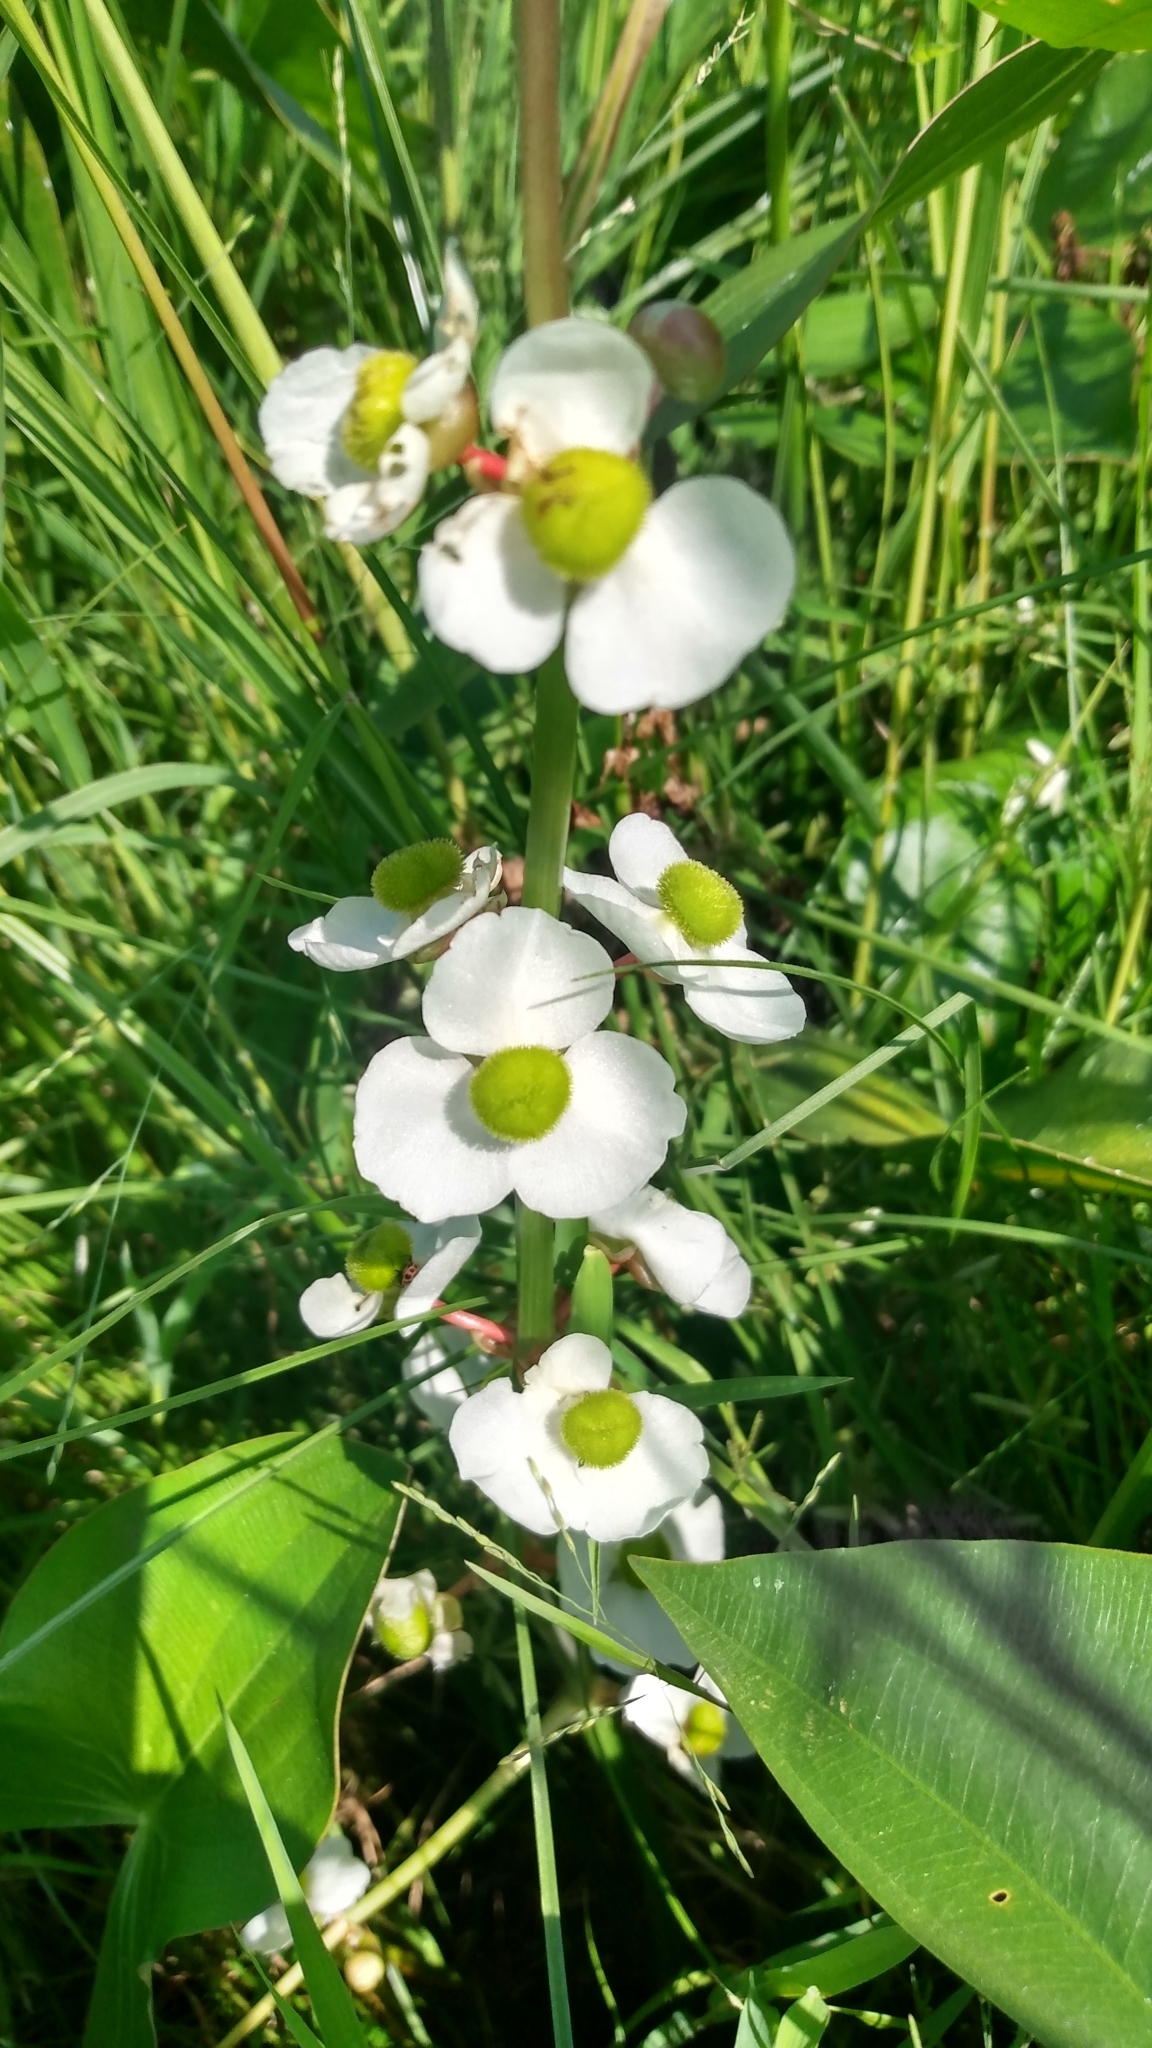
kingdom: Plantae
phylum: Tracheophyta
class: Liliopsida
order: Alismatales
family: Alismataceae
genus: Sagittaria
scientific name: Sagittaria latifolia
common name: Duck-potato
